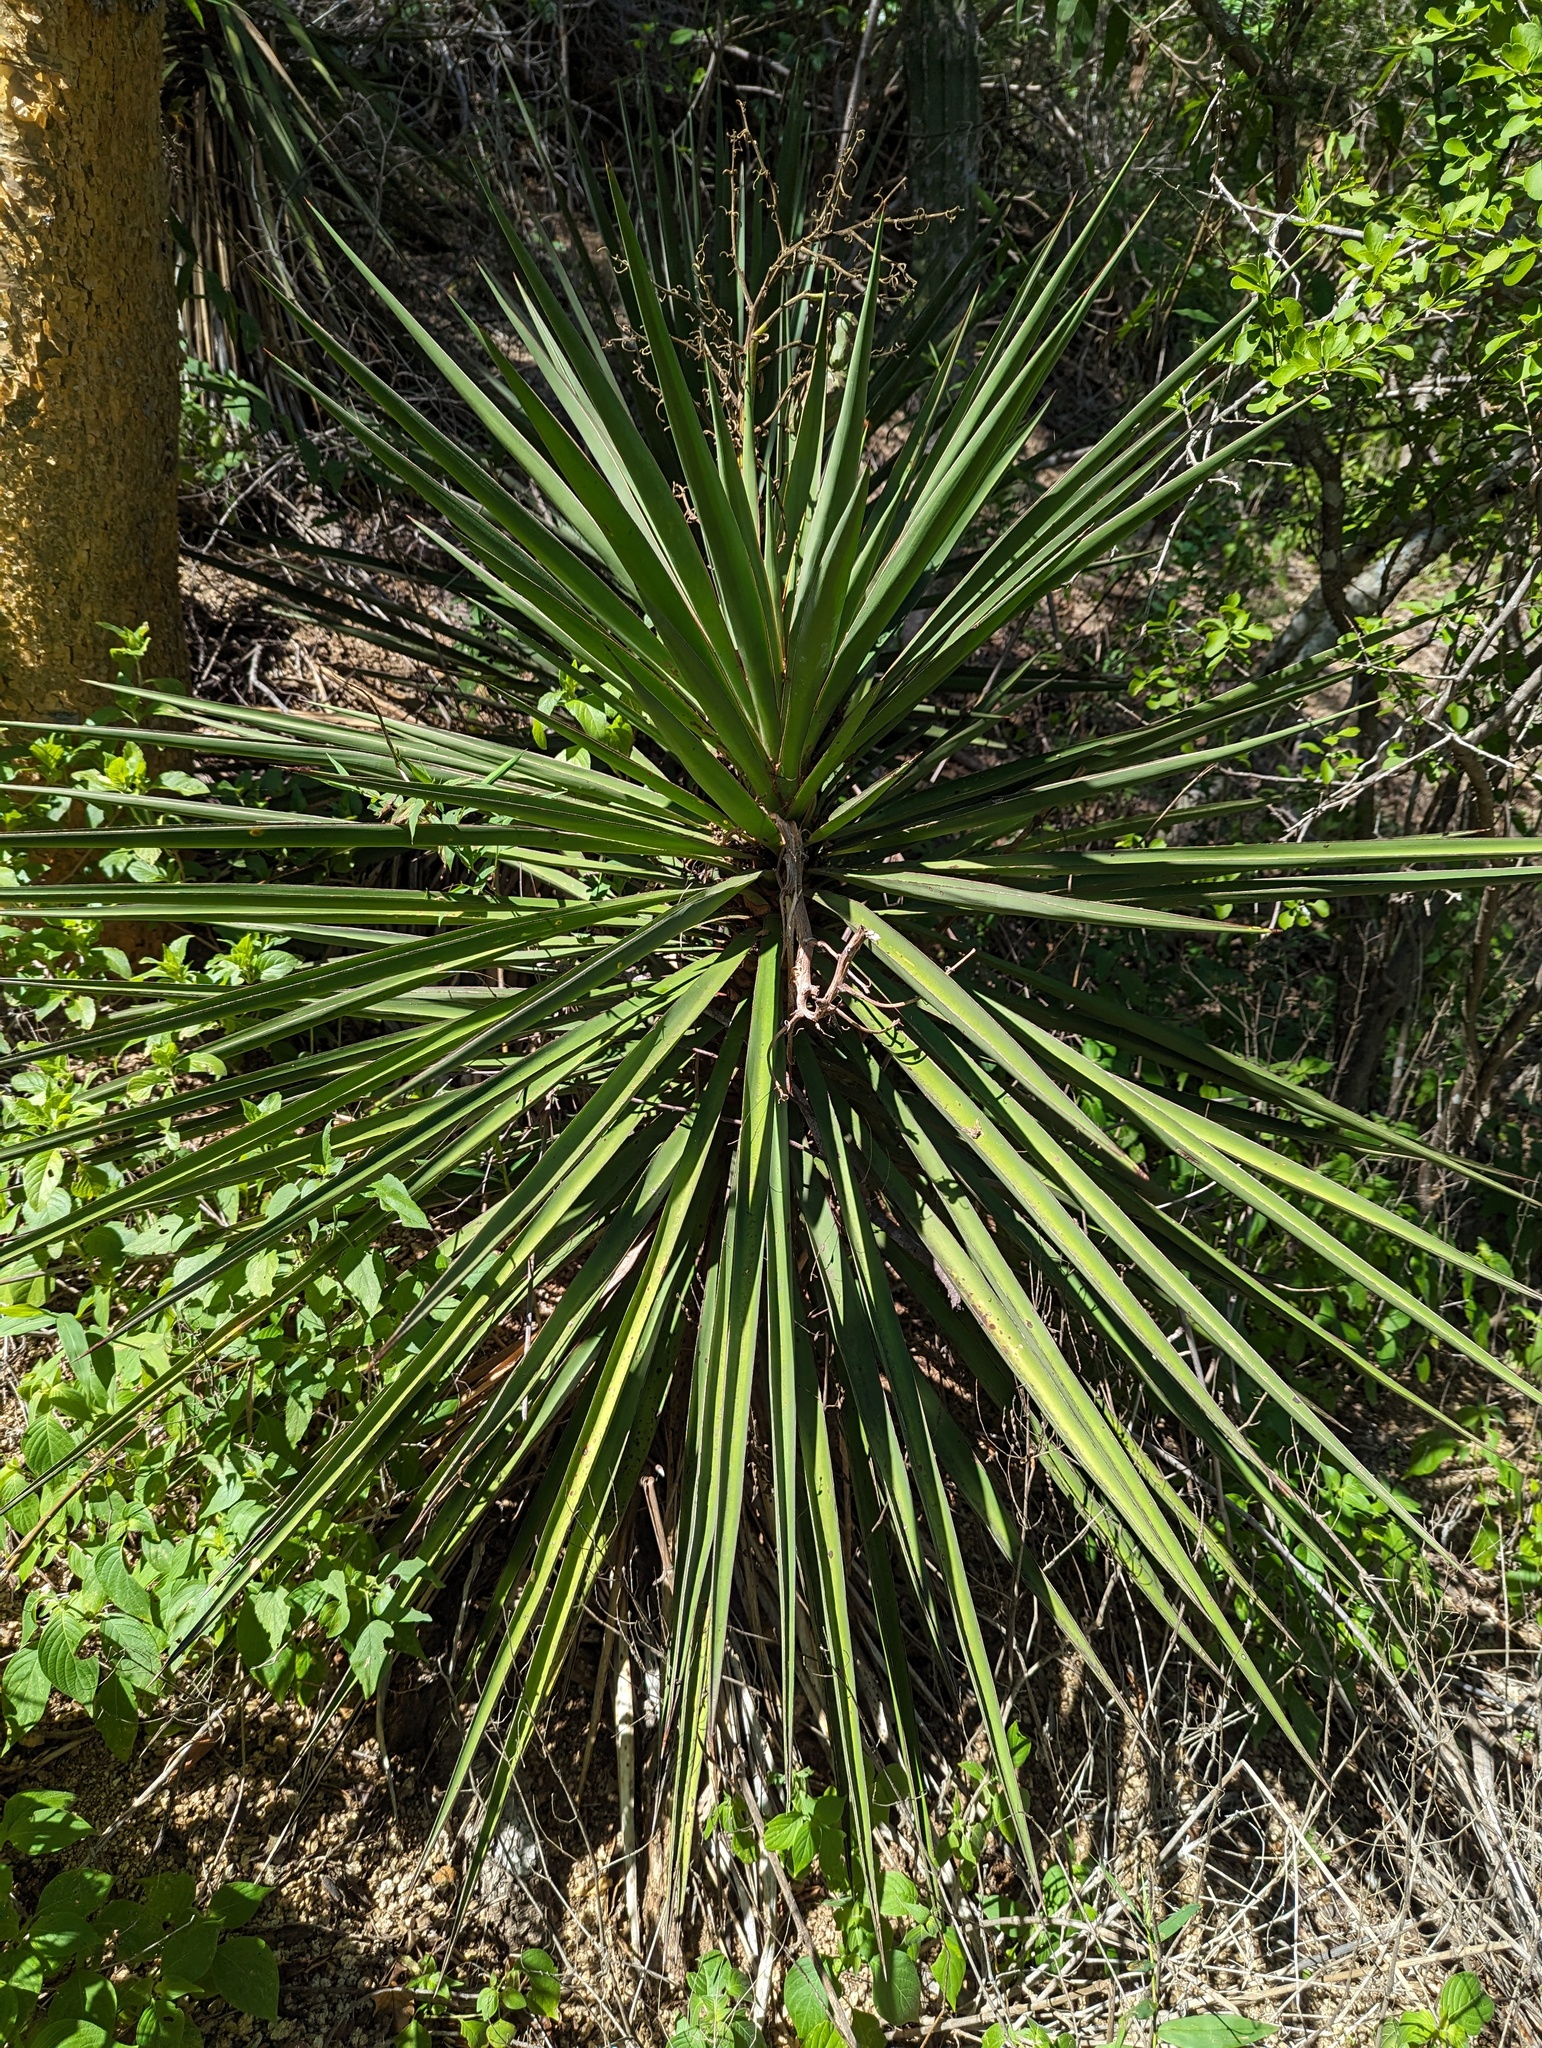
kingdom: Plantae
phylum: Tracheophyta
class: Liliopsida
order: Asparagales
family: Asparagaceae
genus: Yucca
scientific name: Yucca capensis
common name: Cape region yucca
